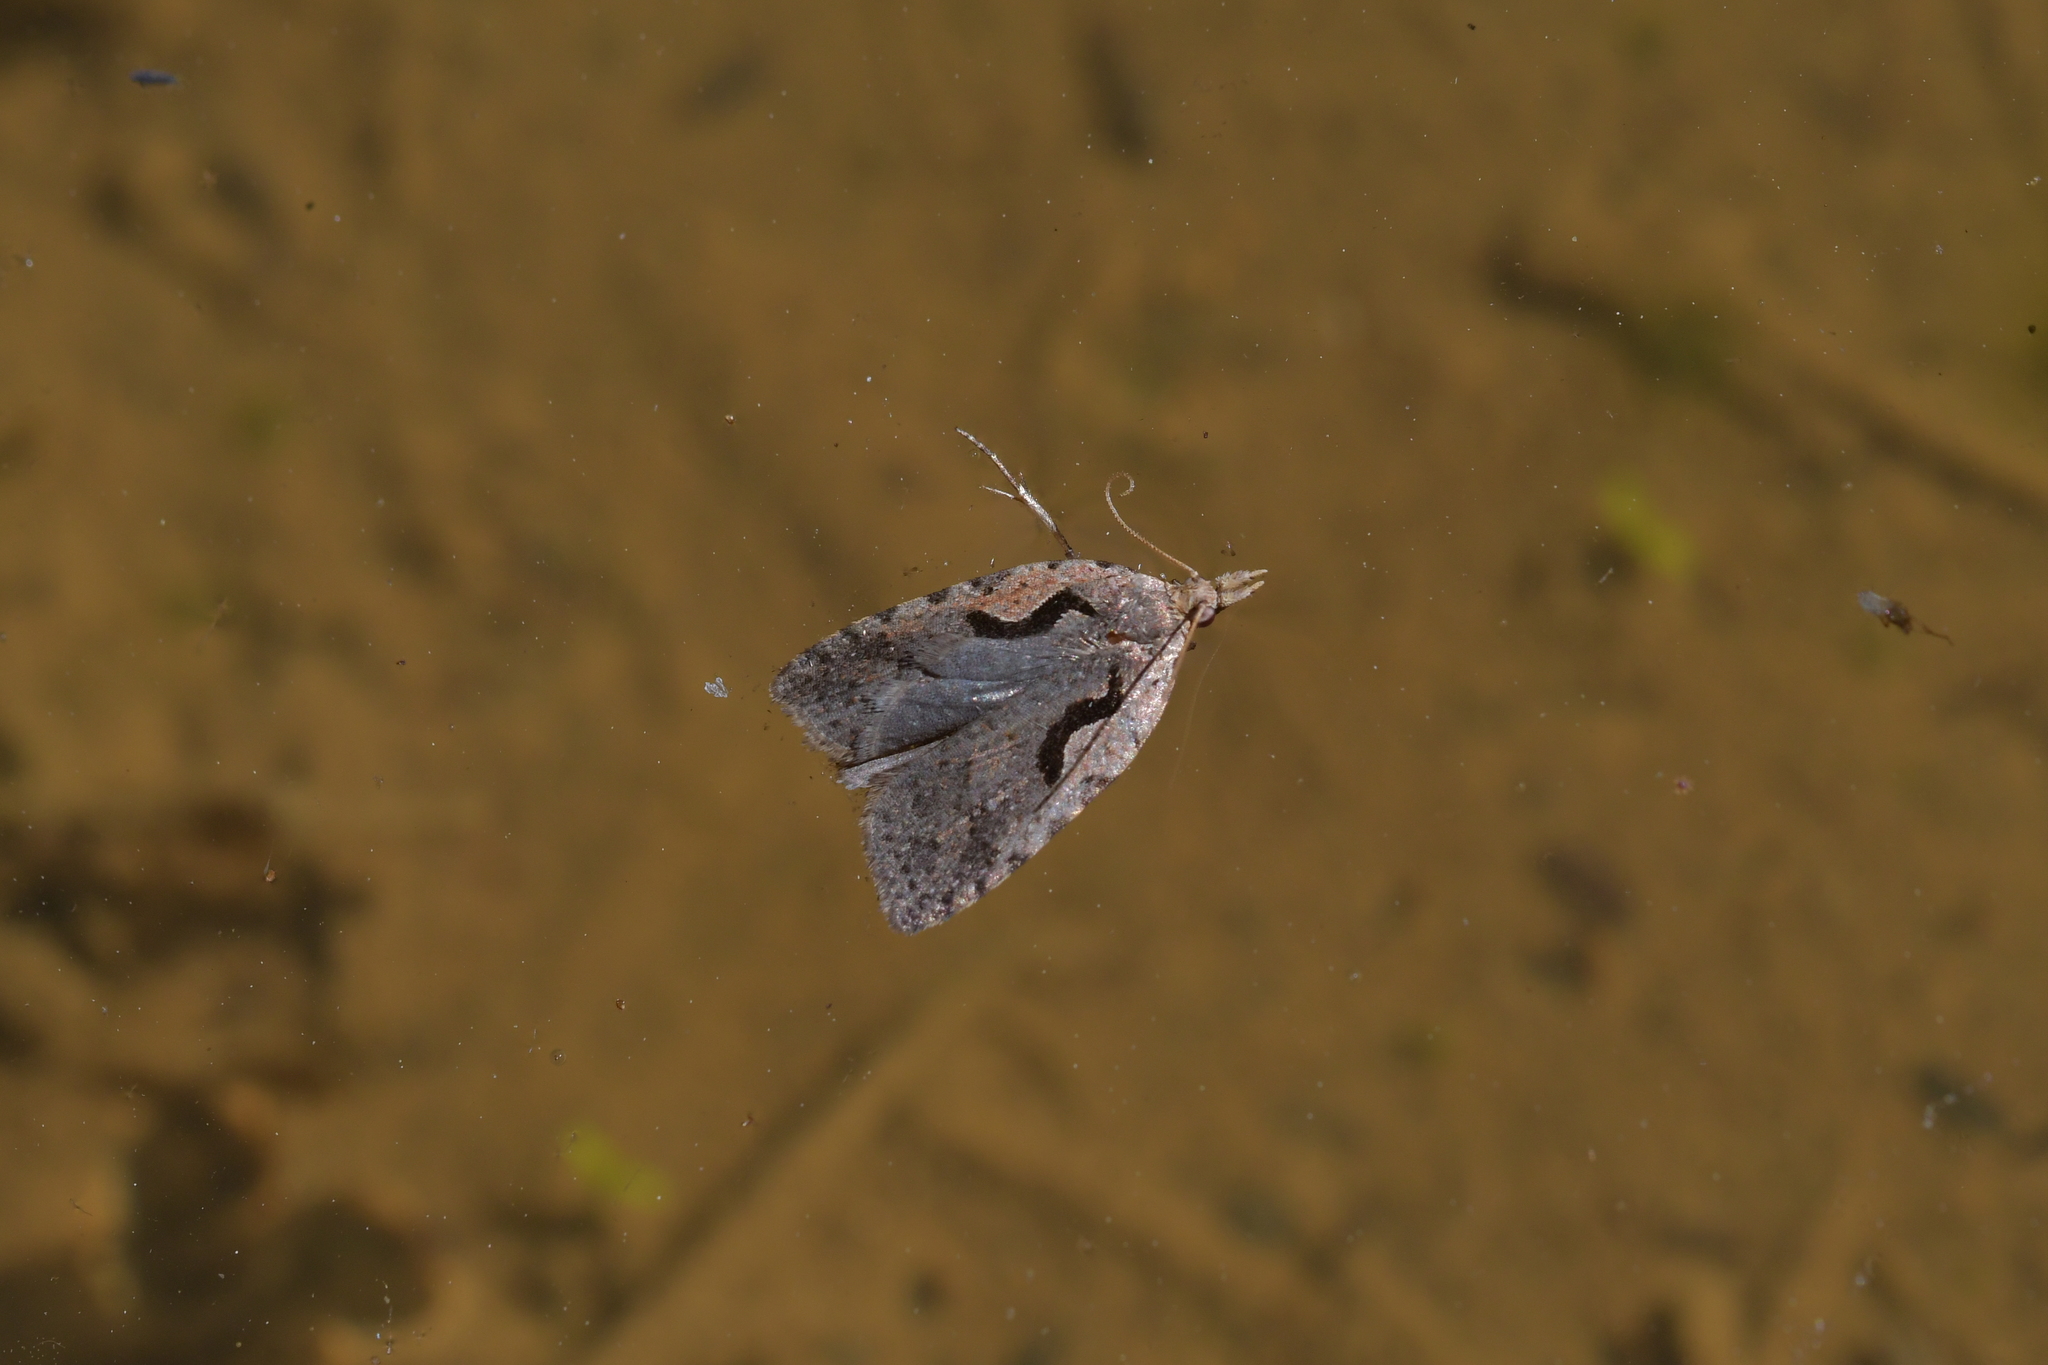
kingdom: Animalia
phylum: Arthropoda
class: Insecta
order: Lepidoptera
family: Tortricidae
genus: Cnephasia
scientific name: Cnephasia jactatana
